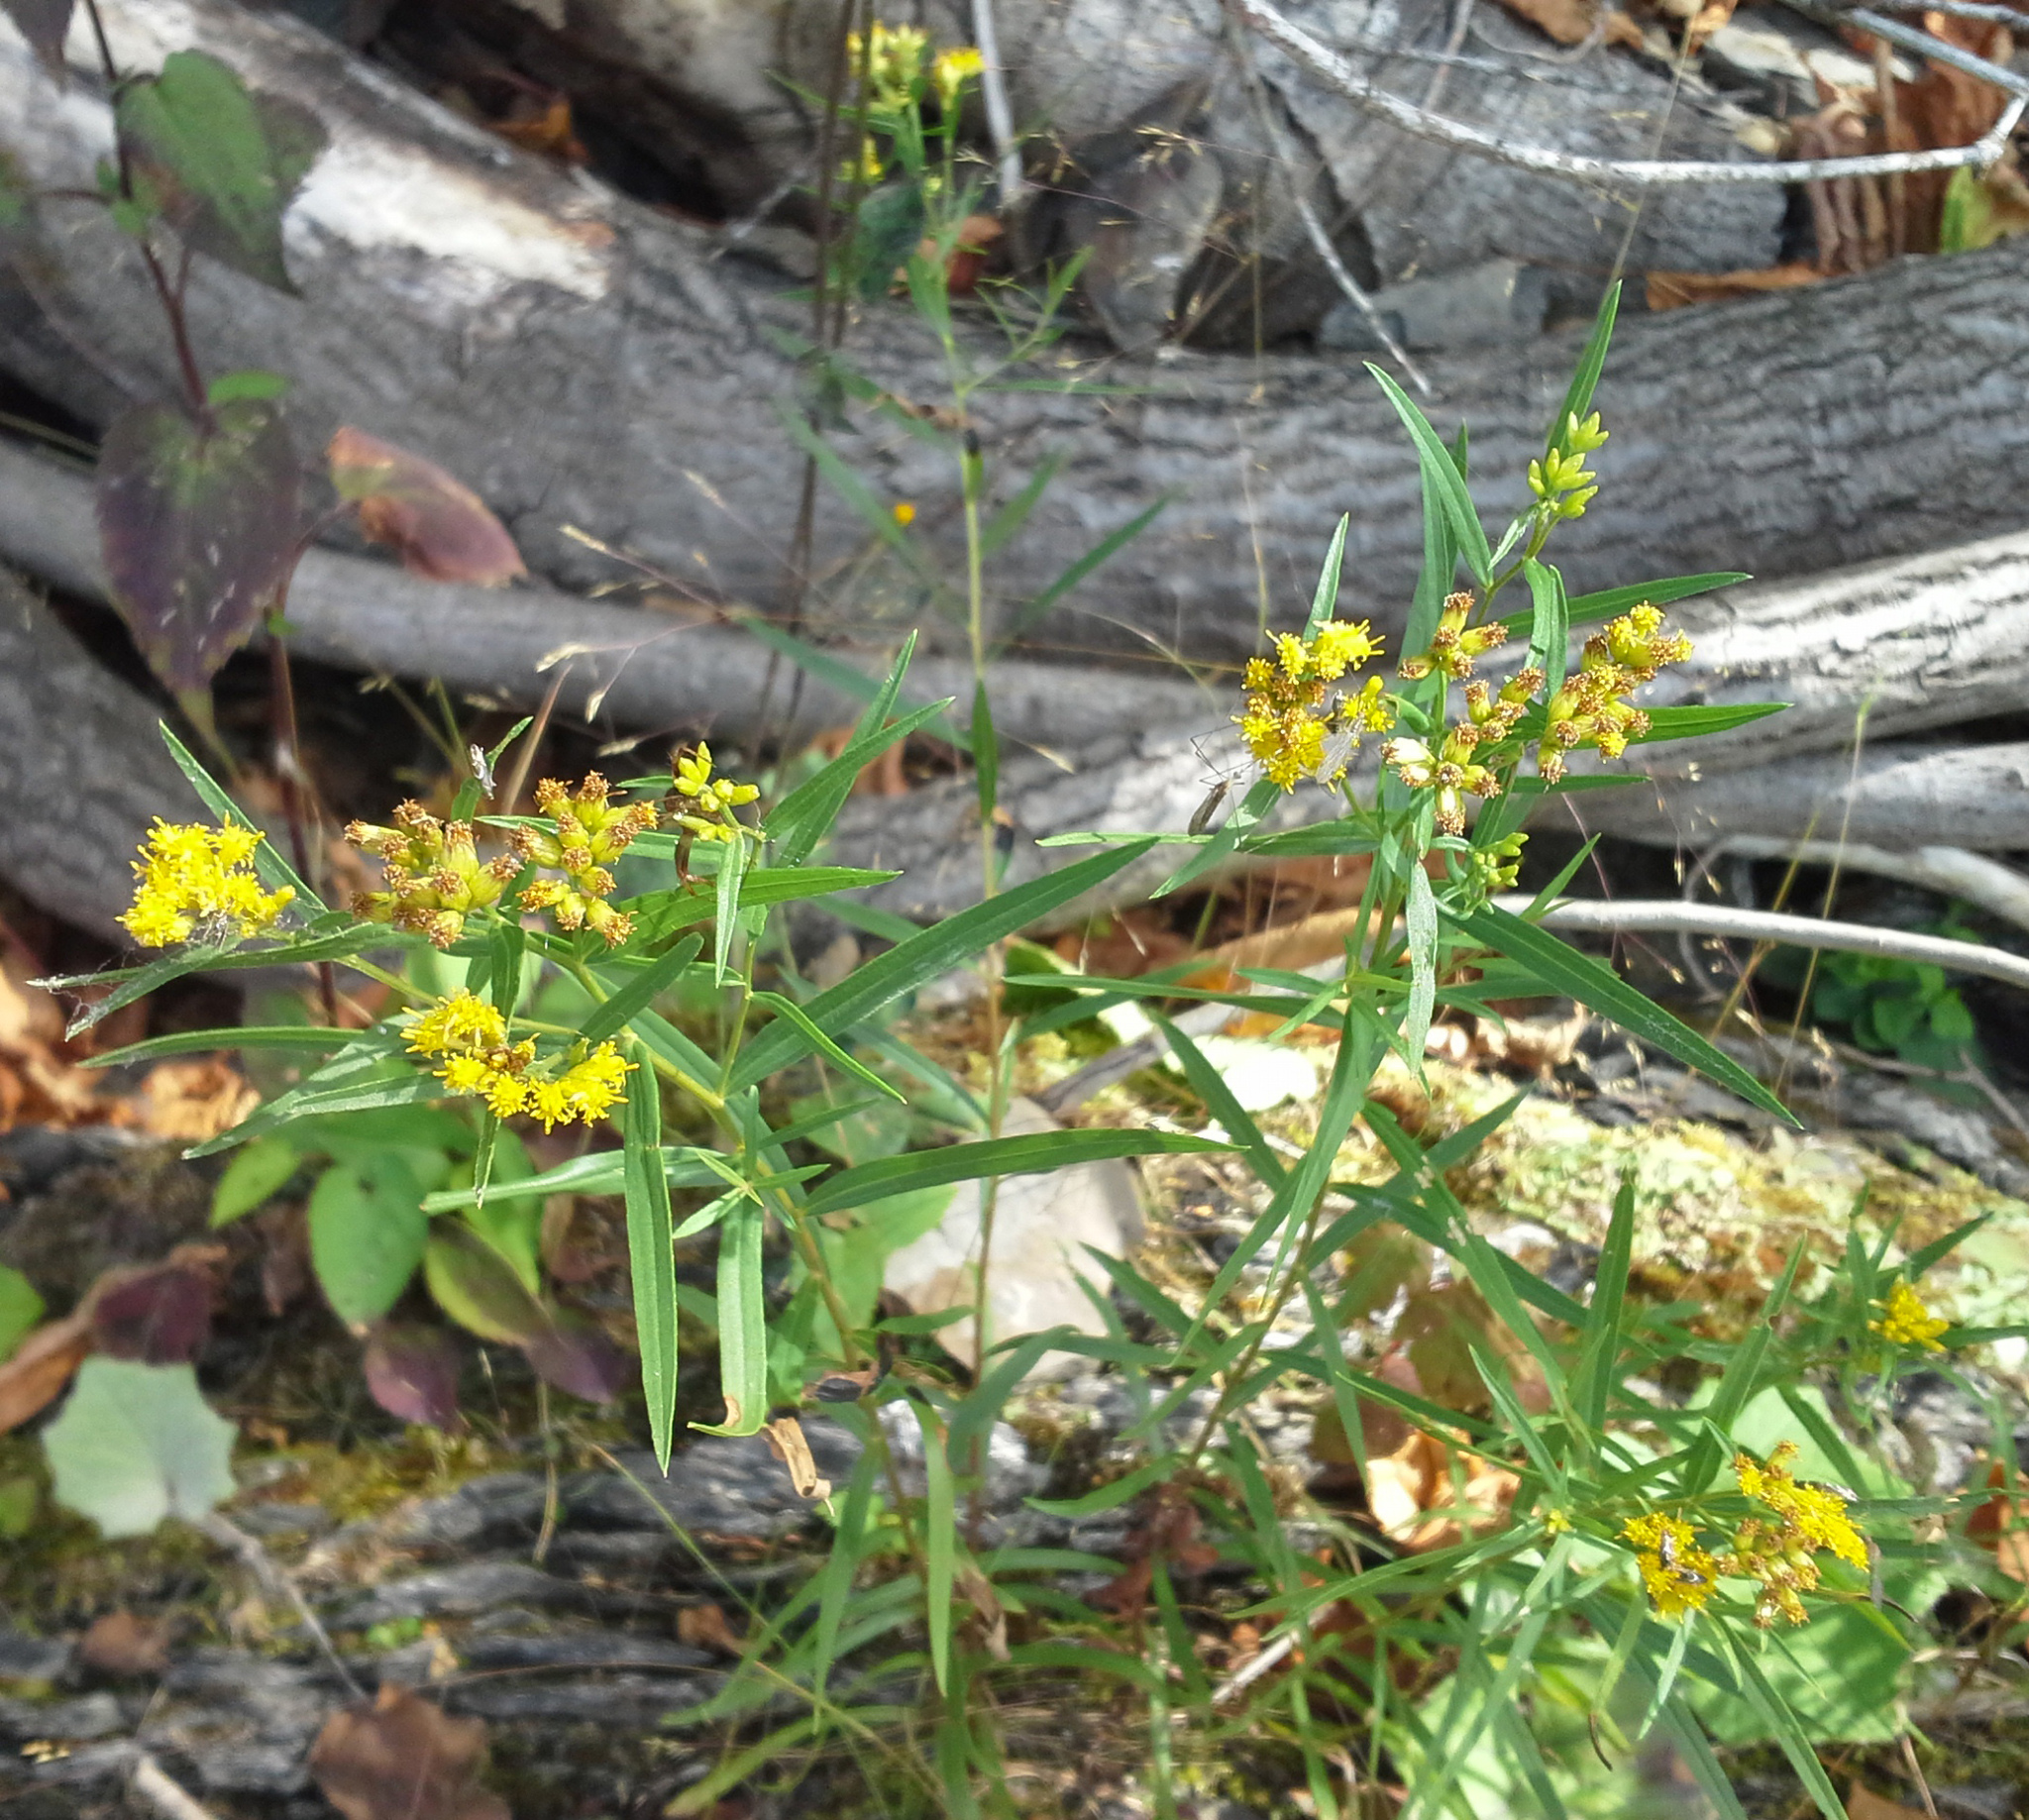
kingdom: Plantae
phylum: Tracheophyta
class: Magnoliopsida
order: Asterales
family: Asteraceae
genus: Euthamia
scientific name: Euthamia graminifolia
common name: Common goldentop
